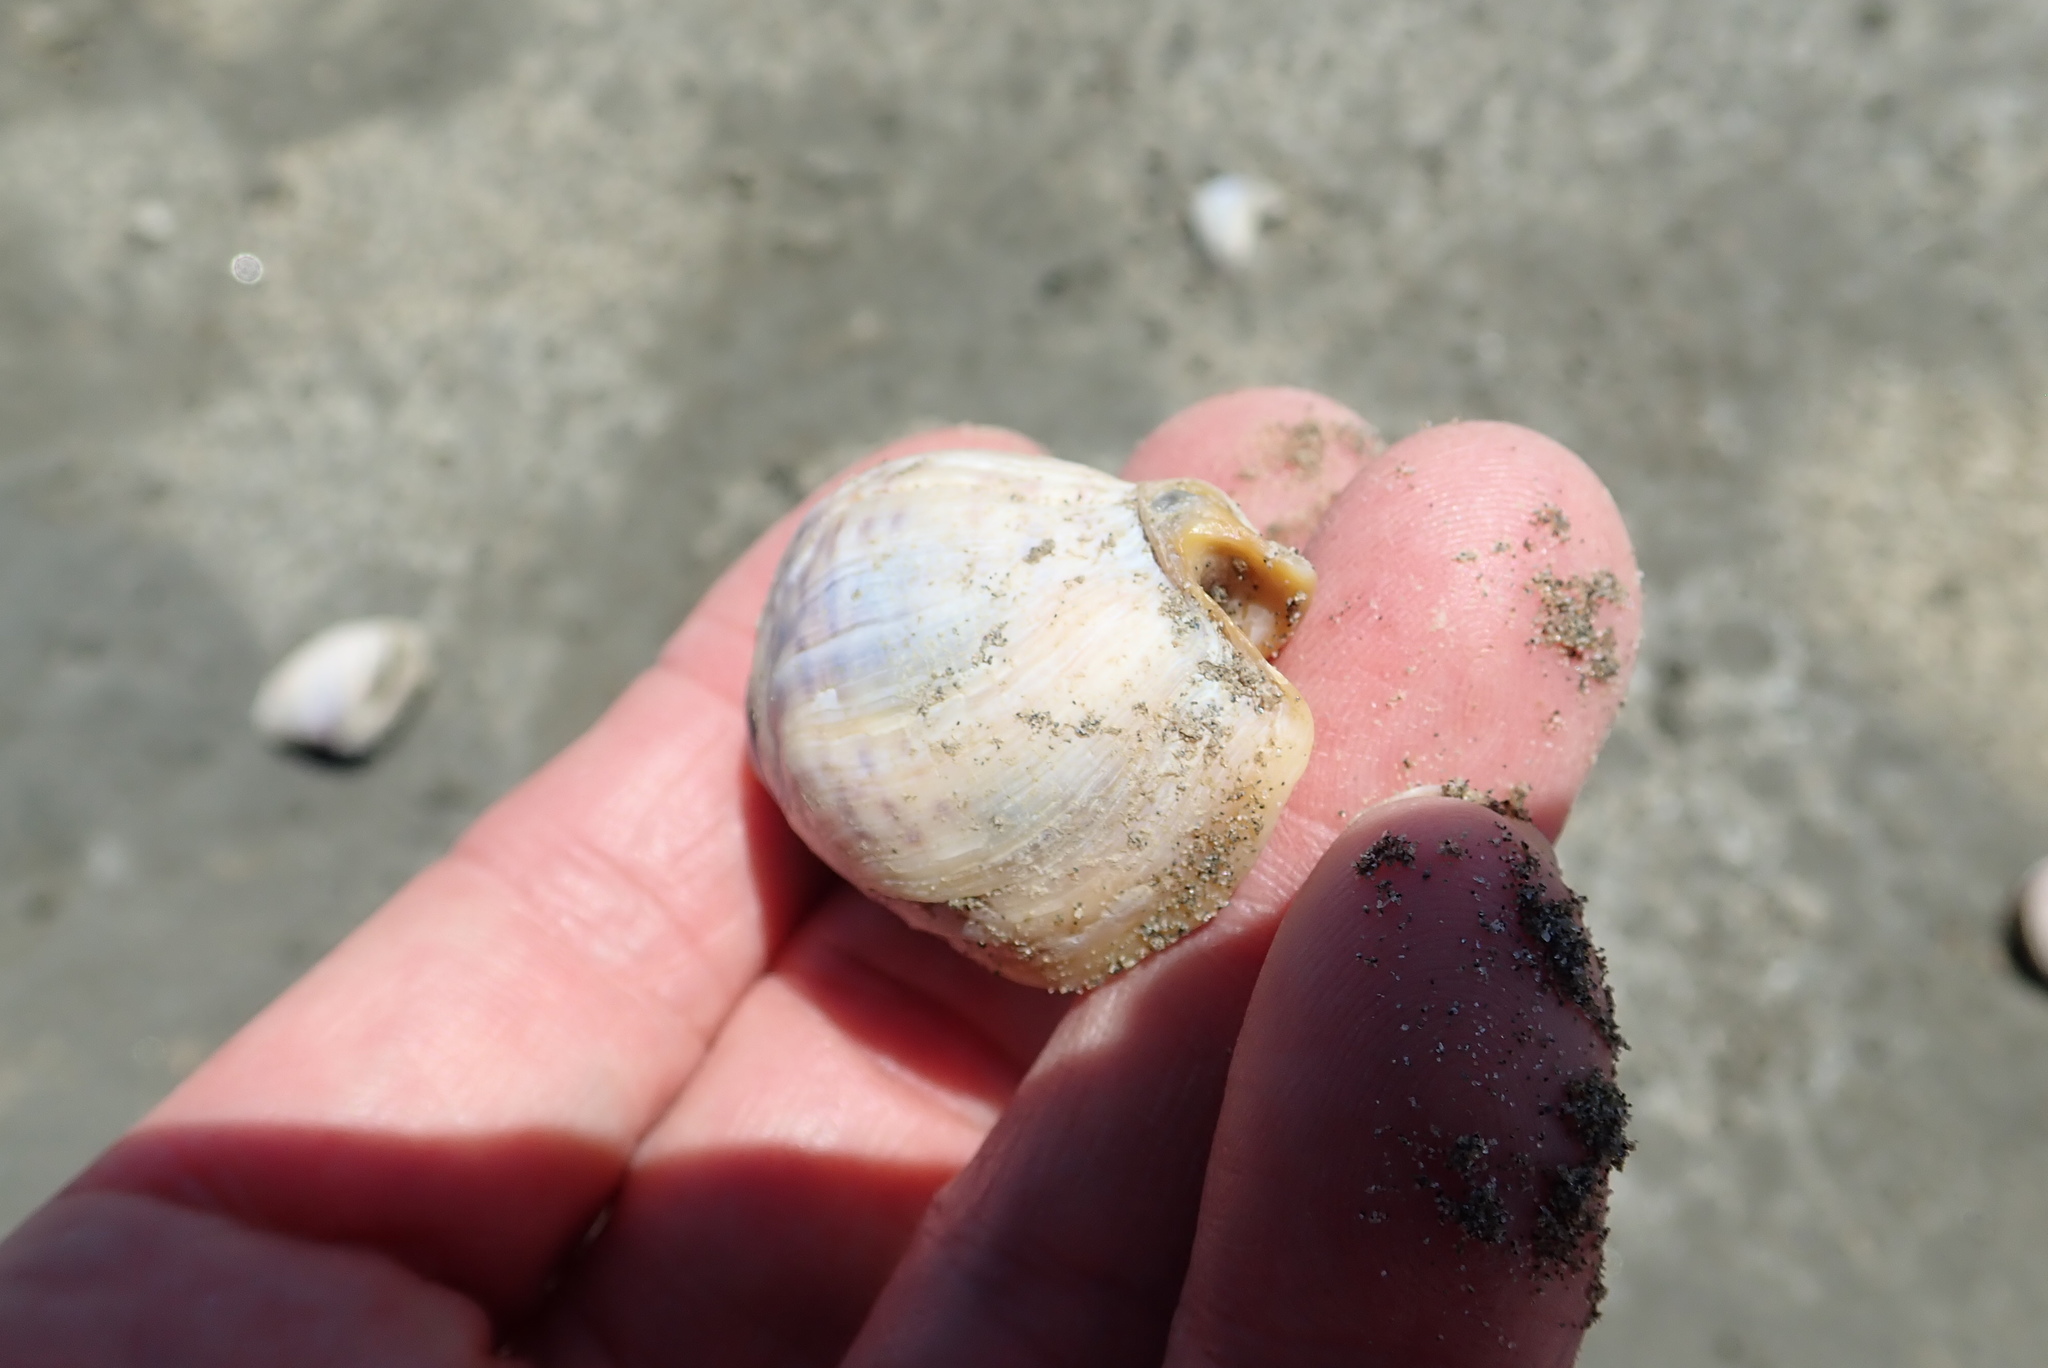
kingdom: Animalia
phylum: Mollusca
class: Gastropoda
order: Neogastropoda
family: Cominellidae
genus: Cominella
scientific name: Cominella adspersa
